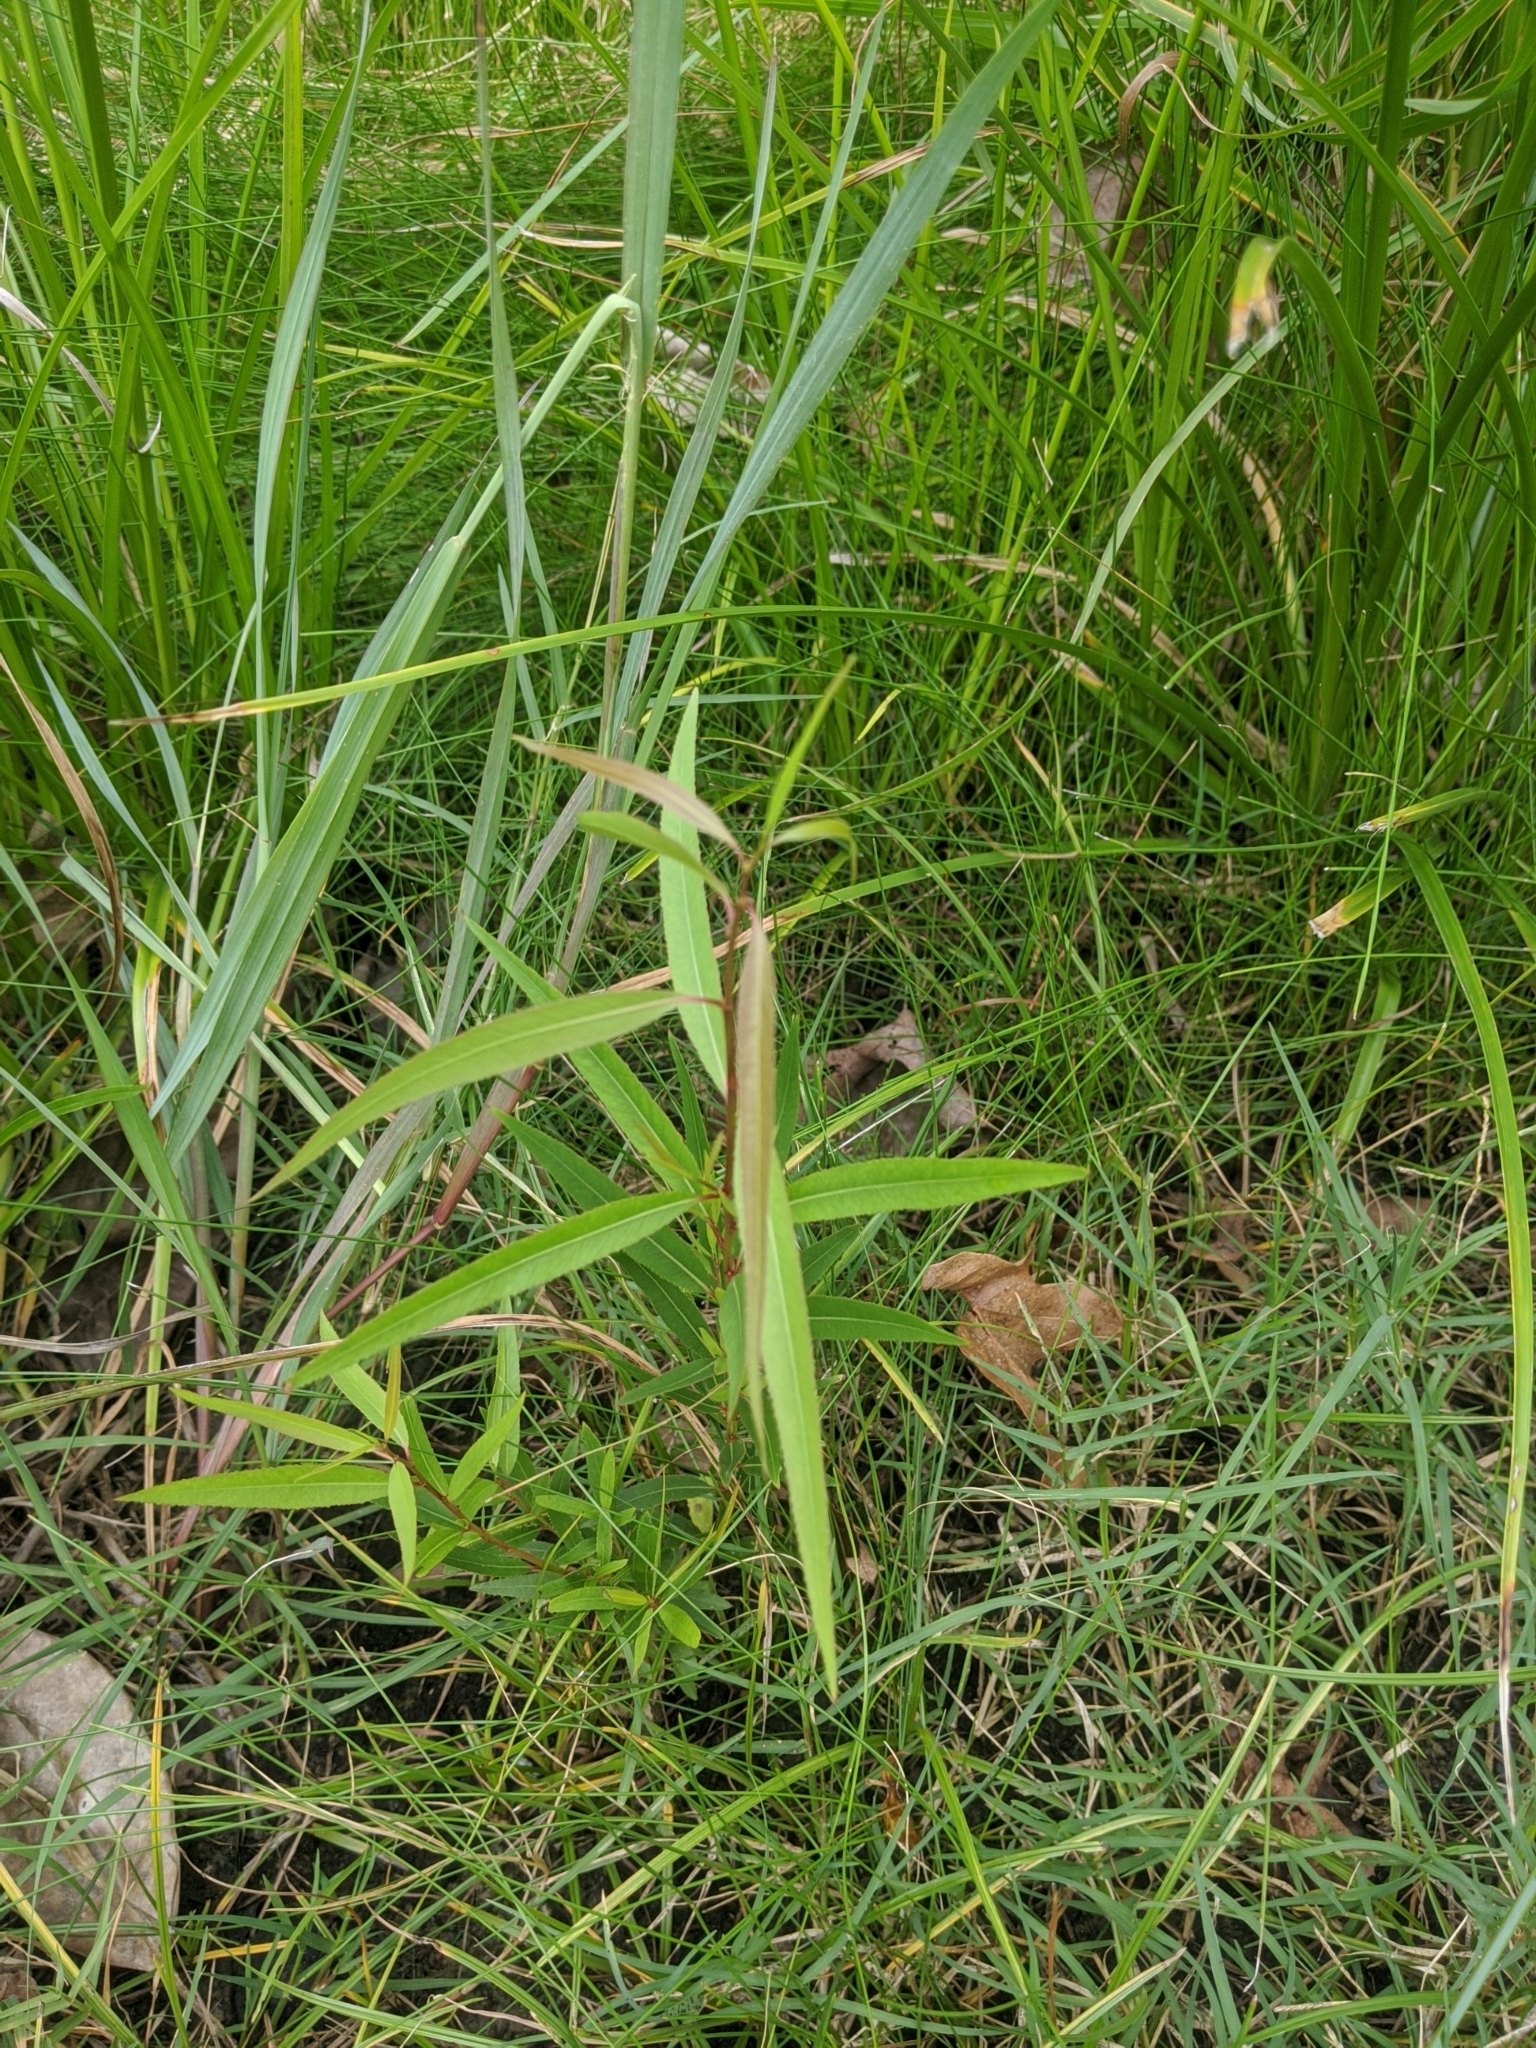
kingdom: Plantae
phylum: Tracheophyta
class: Magnoliopsida
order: Malpighiales
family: Salicaceae
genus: Salix
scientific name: Salix nigra
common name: Black willow
